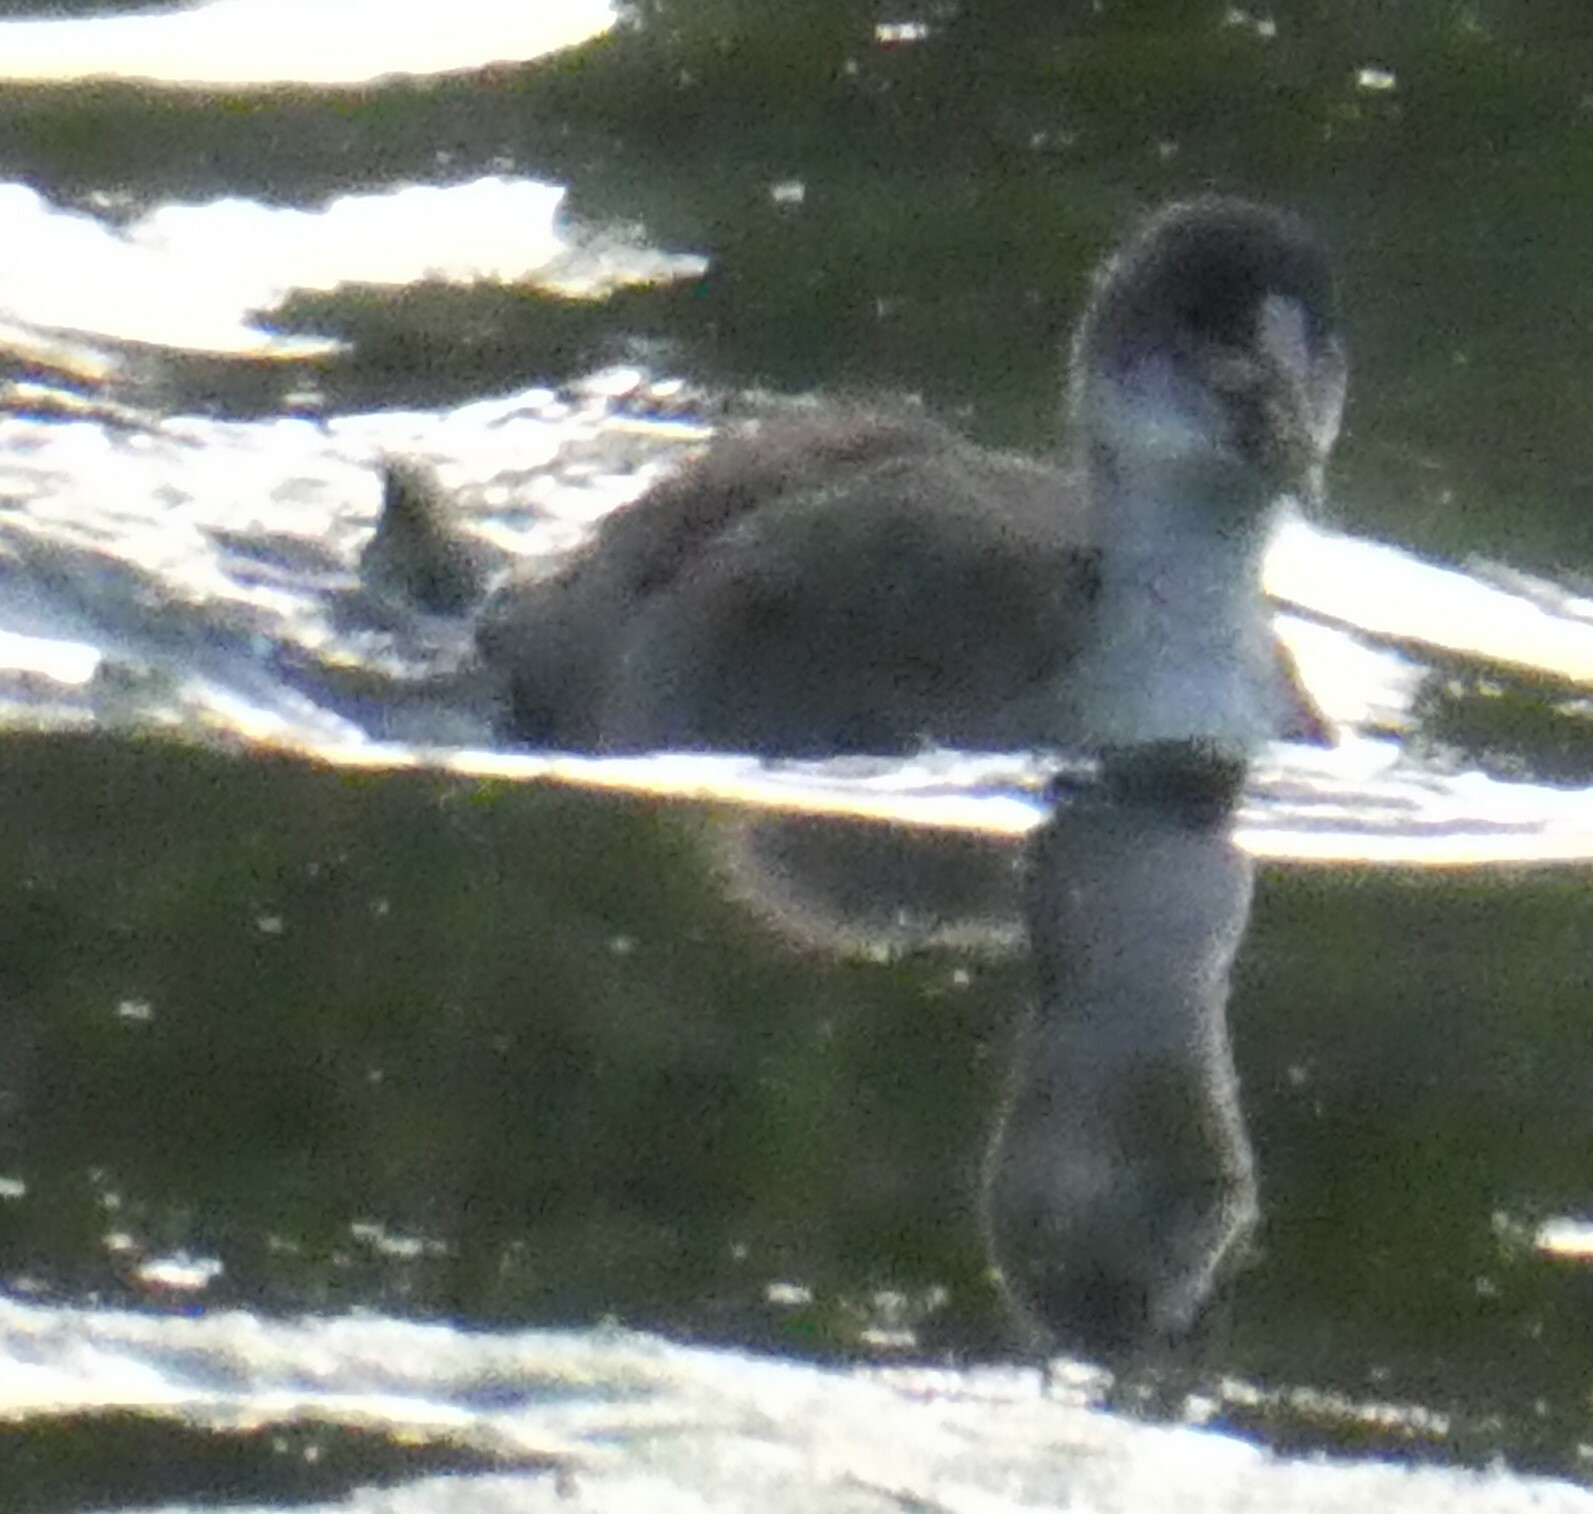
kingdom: Animalia
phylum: Chordata
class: Aves
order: Gruiformes
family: Rallidae
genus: Fulica
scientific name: Fulica atra
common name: Eurasian coot
